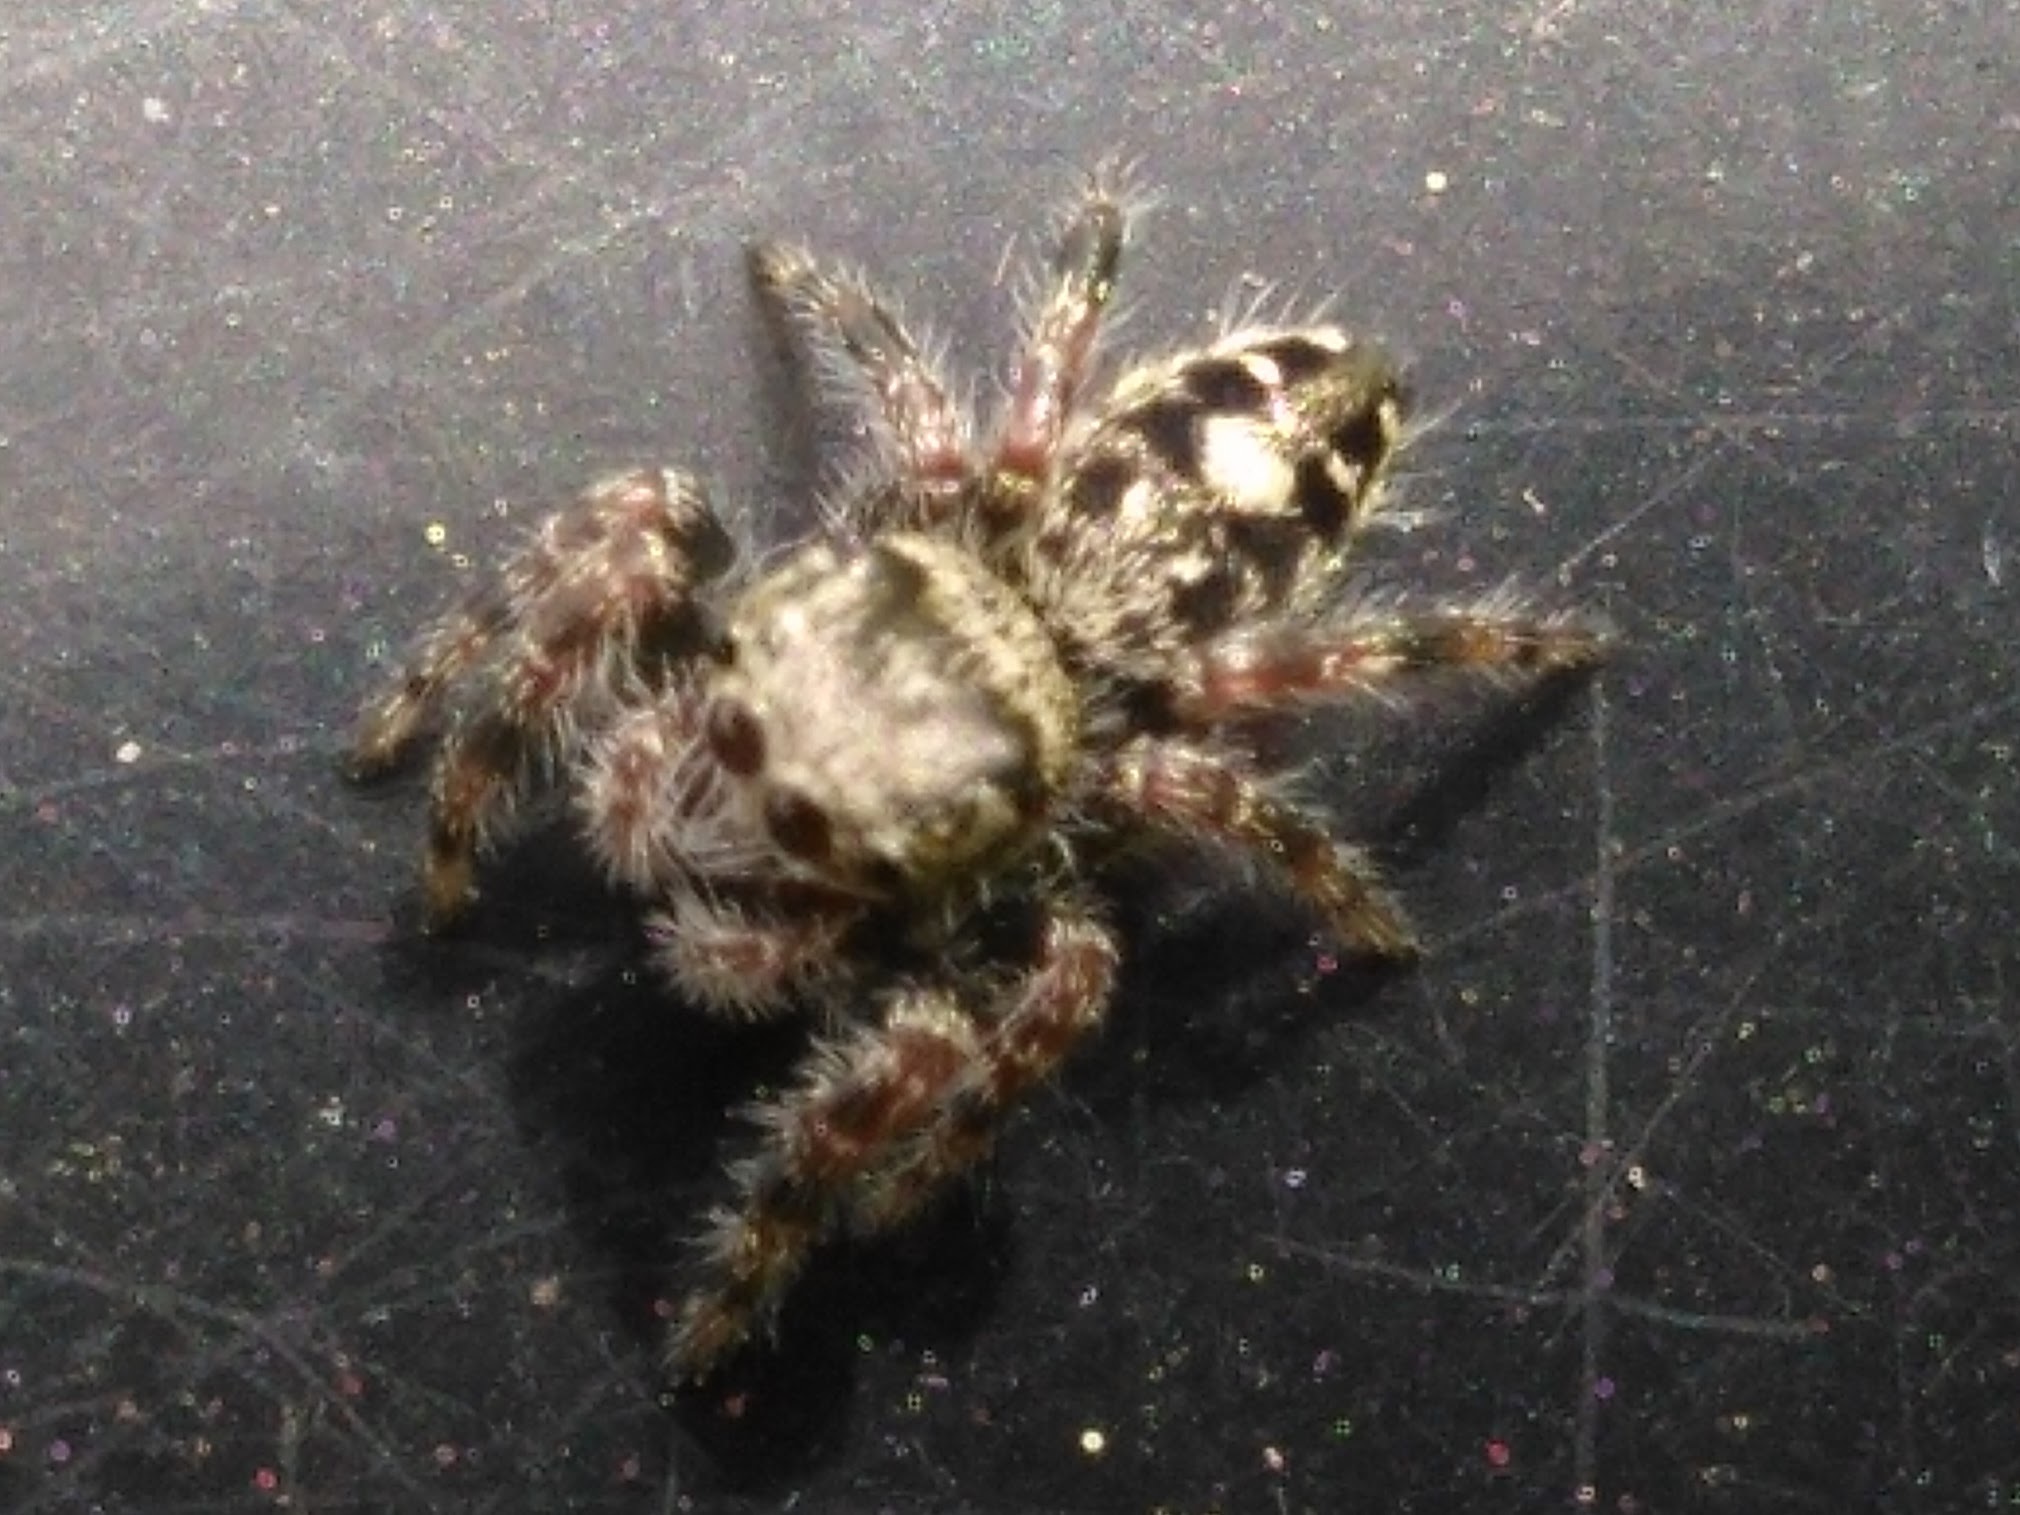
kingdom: Animalia
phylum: Arthropoda
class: Arachnida
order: Araneae
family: Salticidae
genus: Phidippus
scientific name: Phidippus putnami
